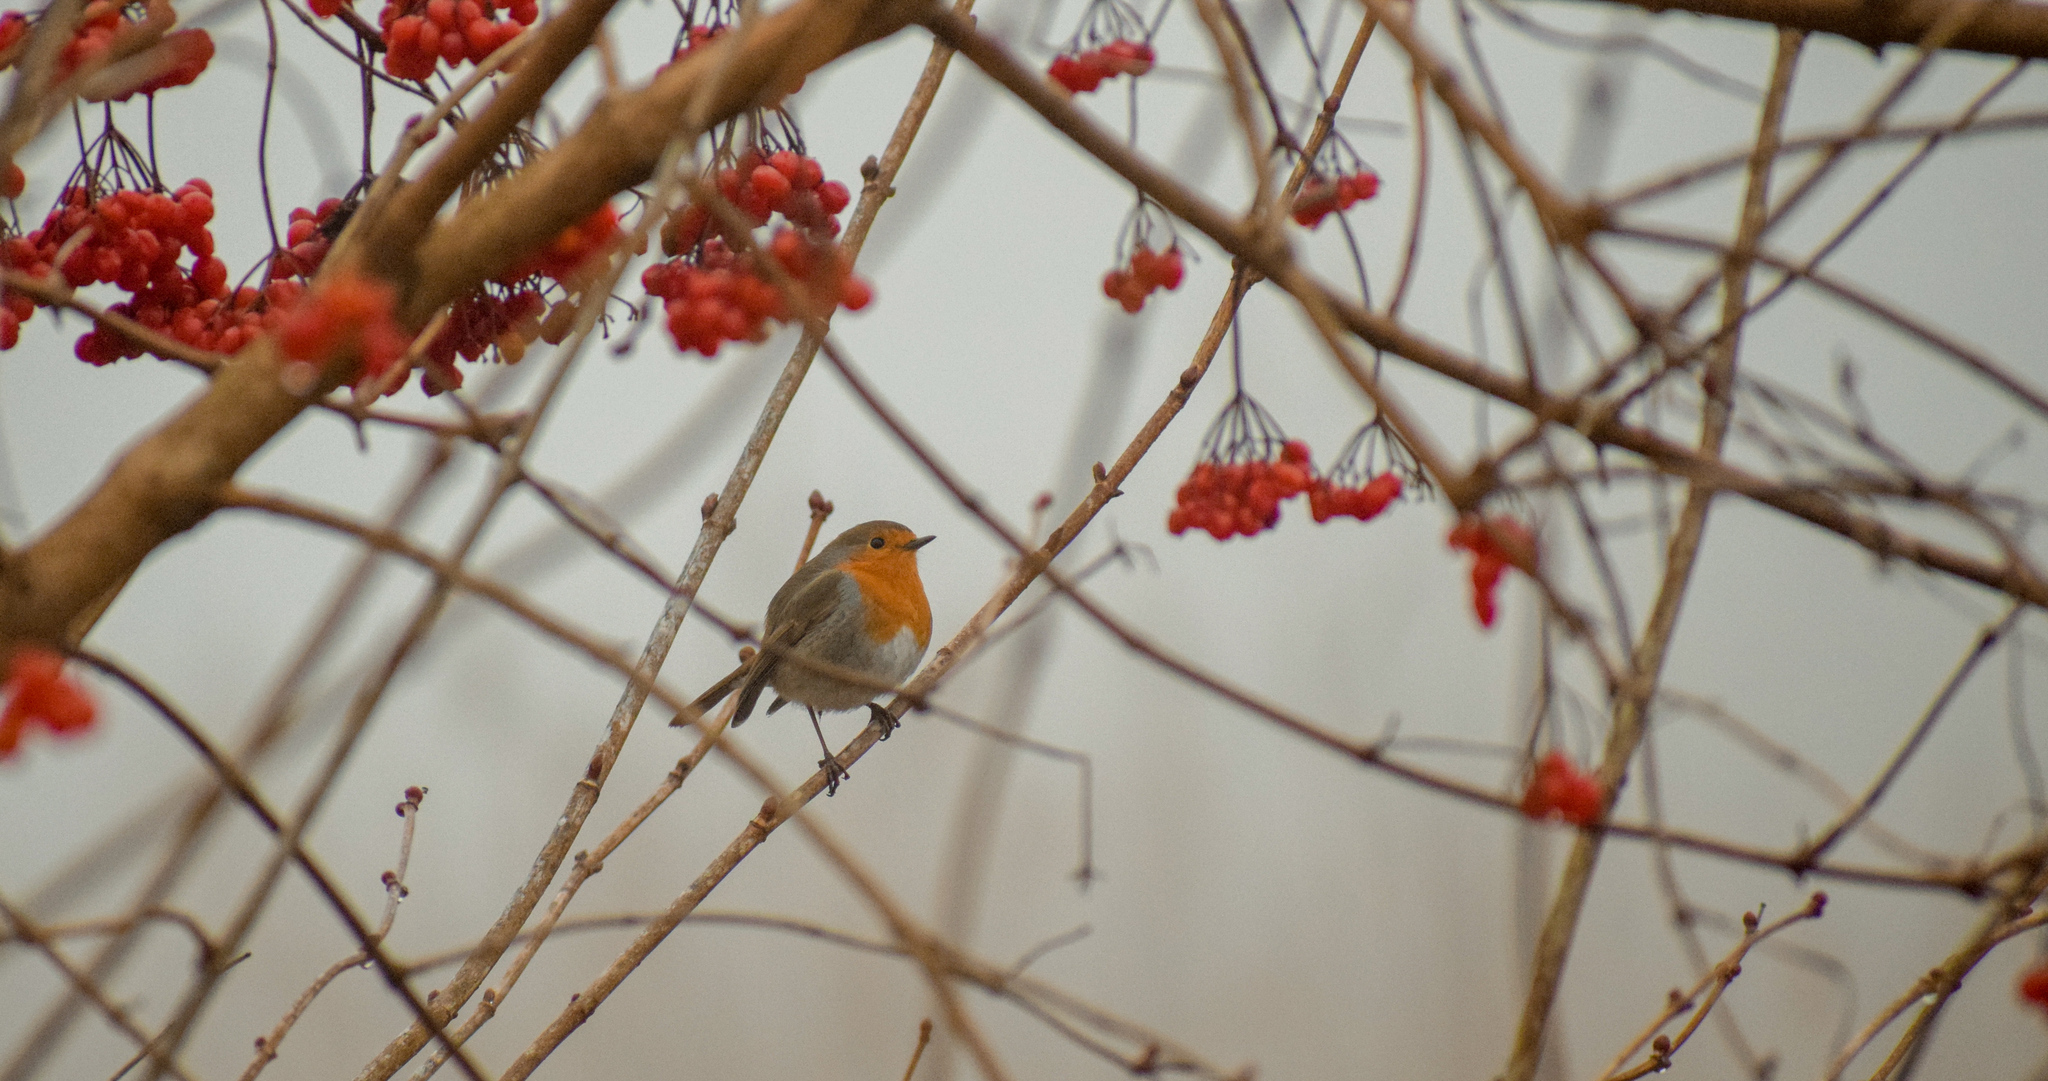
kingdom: Animalia
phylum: Chordata
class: Aves
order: Passeriformes
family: Muscicapidae
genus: Erithacus
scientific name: Erithacus rubecula
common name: European robin
